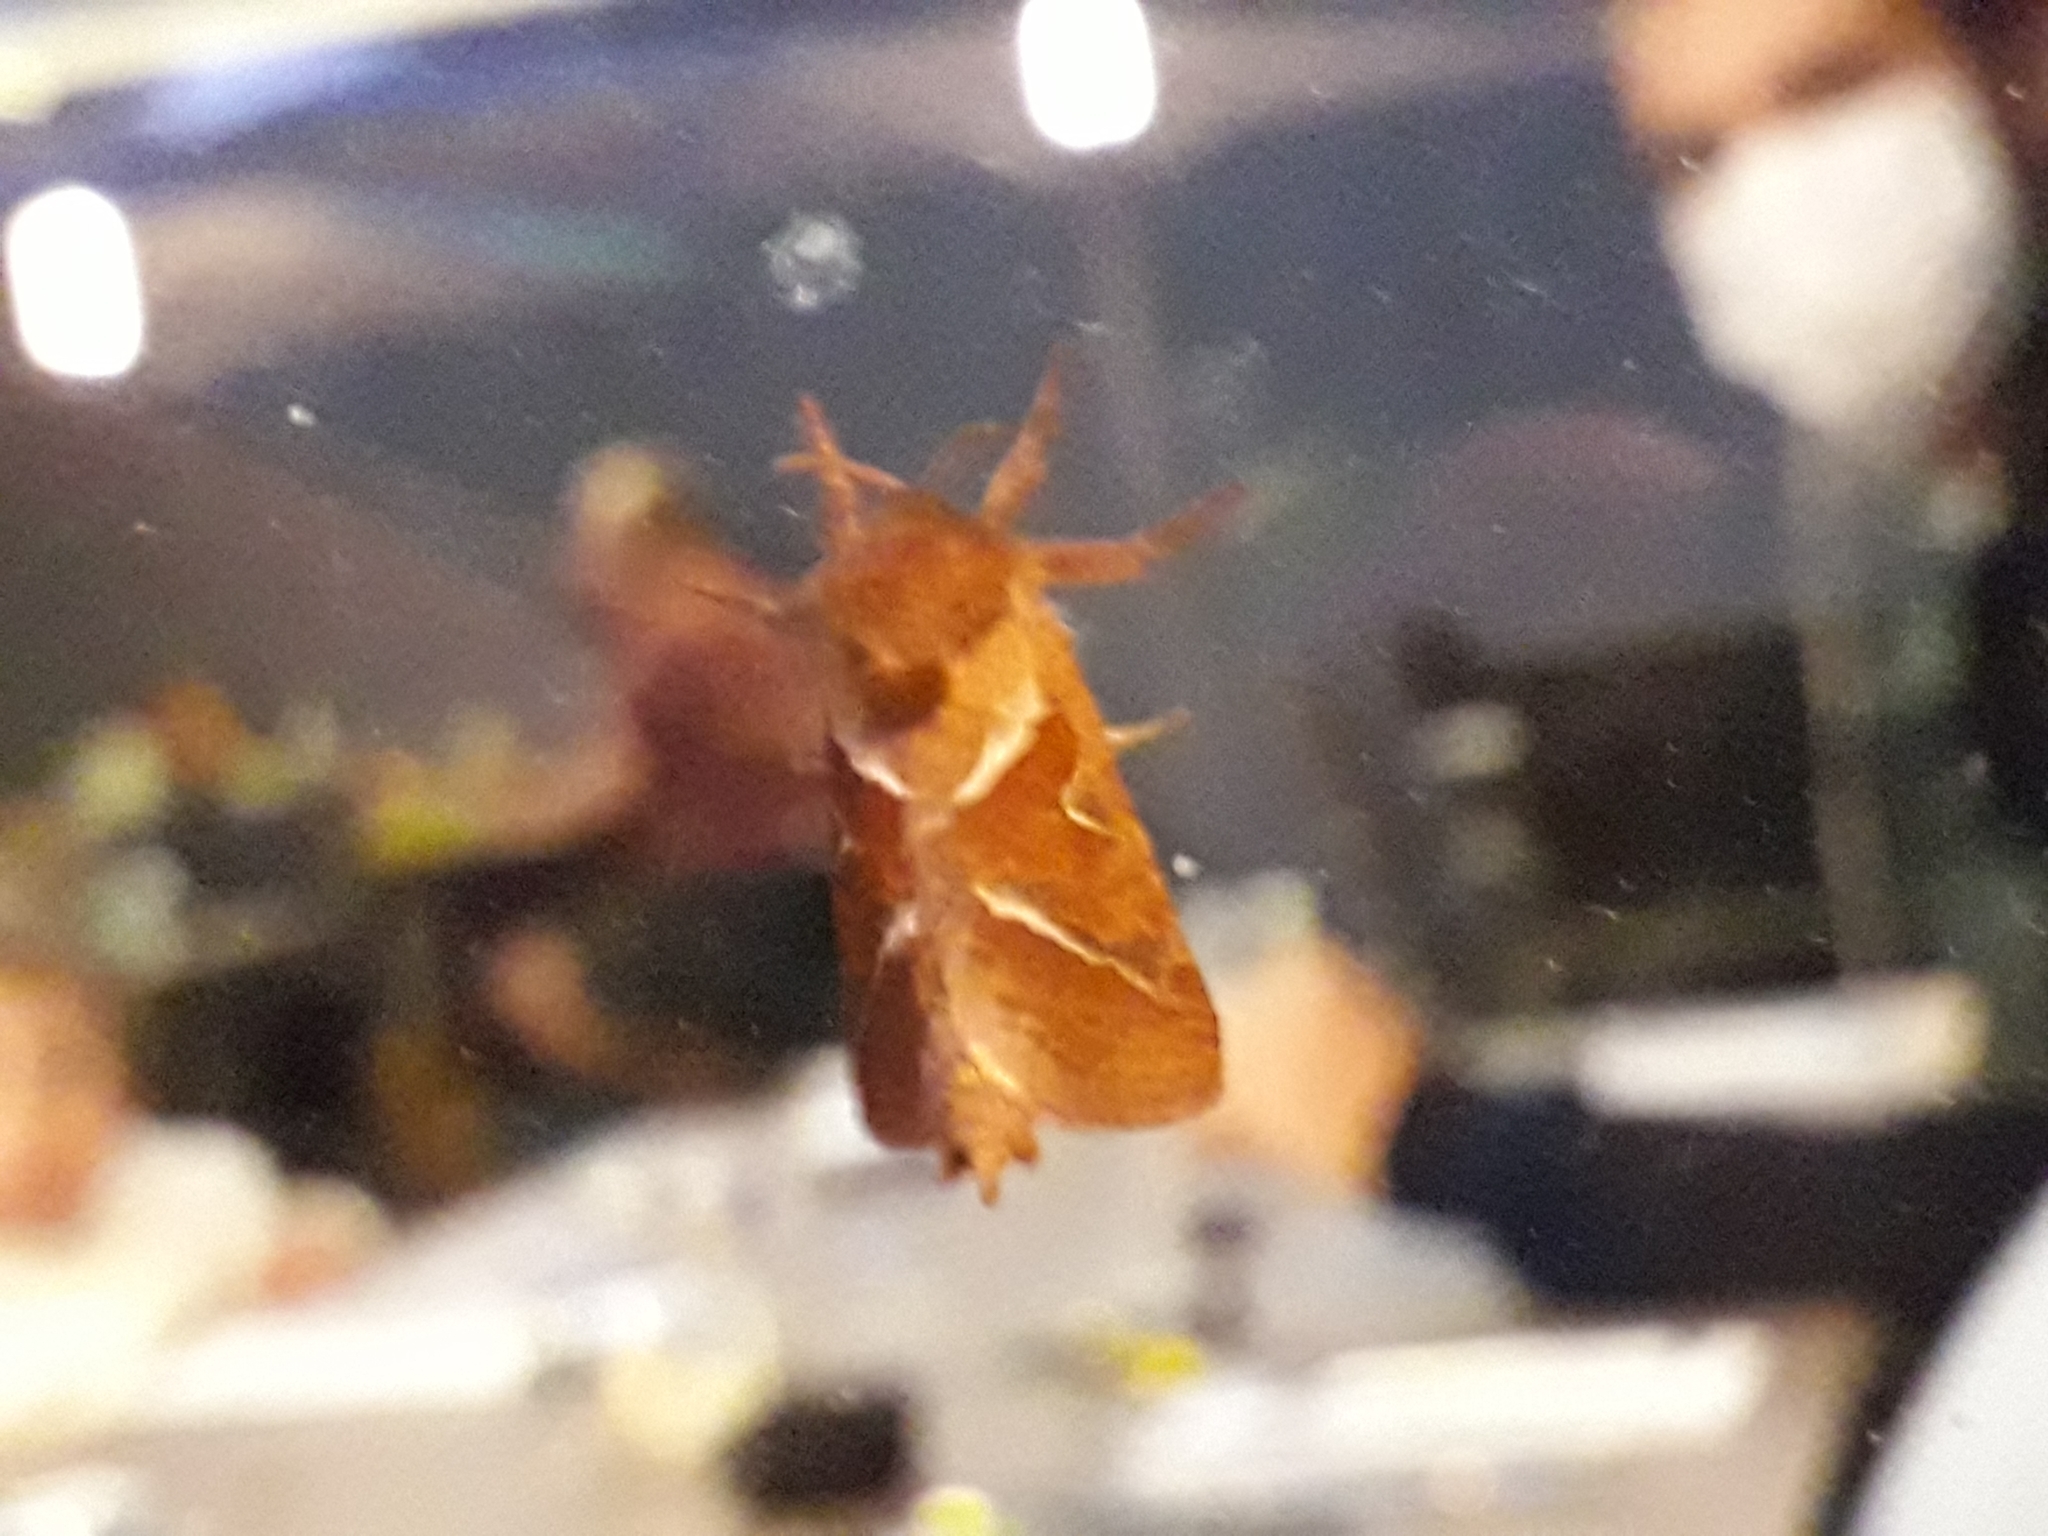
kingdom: Animalia
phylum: Arthropoda
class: Insecta
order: Lepidoptera
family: Hepialidae
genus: Triodia
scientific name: Triodia sylvina
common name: Orange swift
